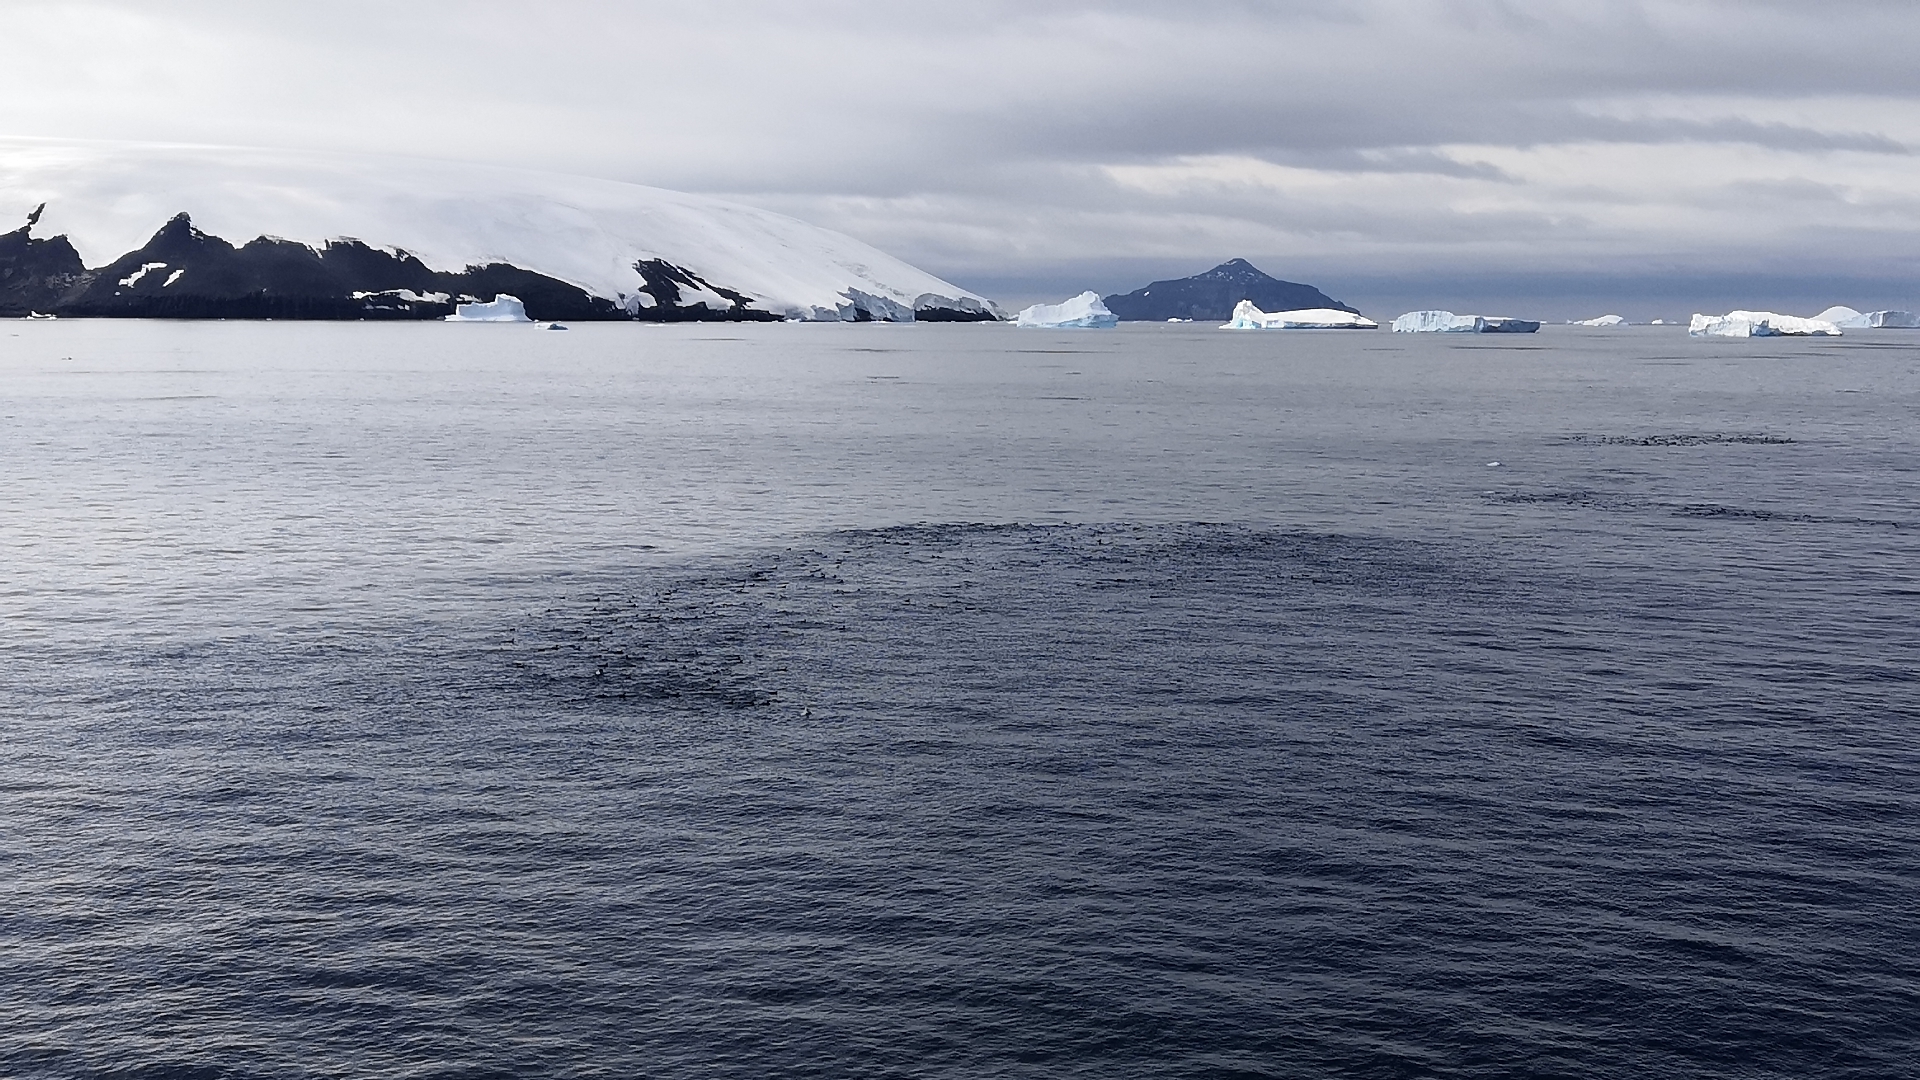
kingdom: Animalia
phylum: Chordata
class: Aves
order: Sphenisciformes
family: Spheniscidae
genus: Pygoscelis
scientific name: Pygoscelis adeliae
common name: Adelie penguin
